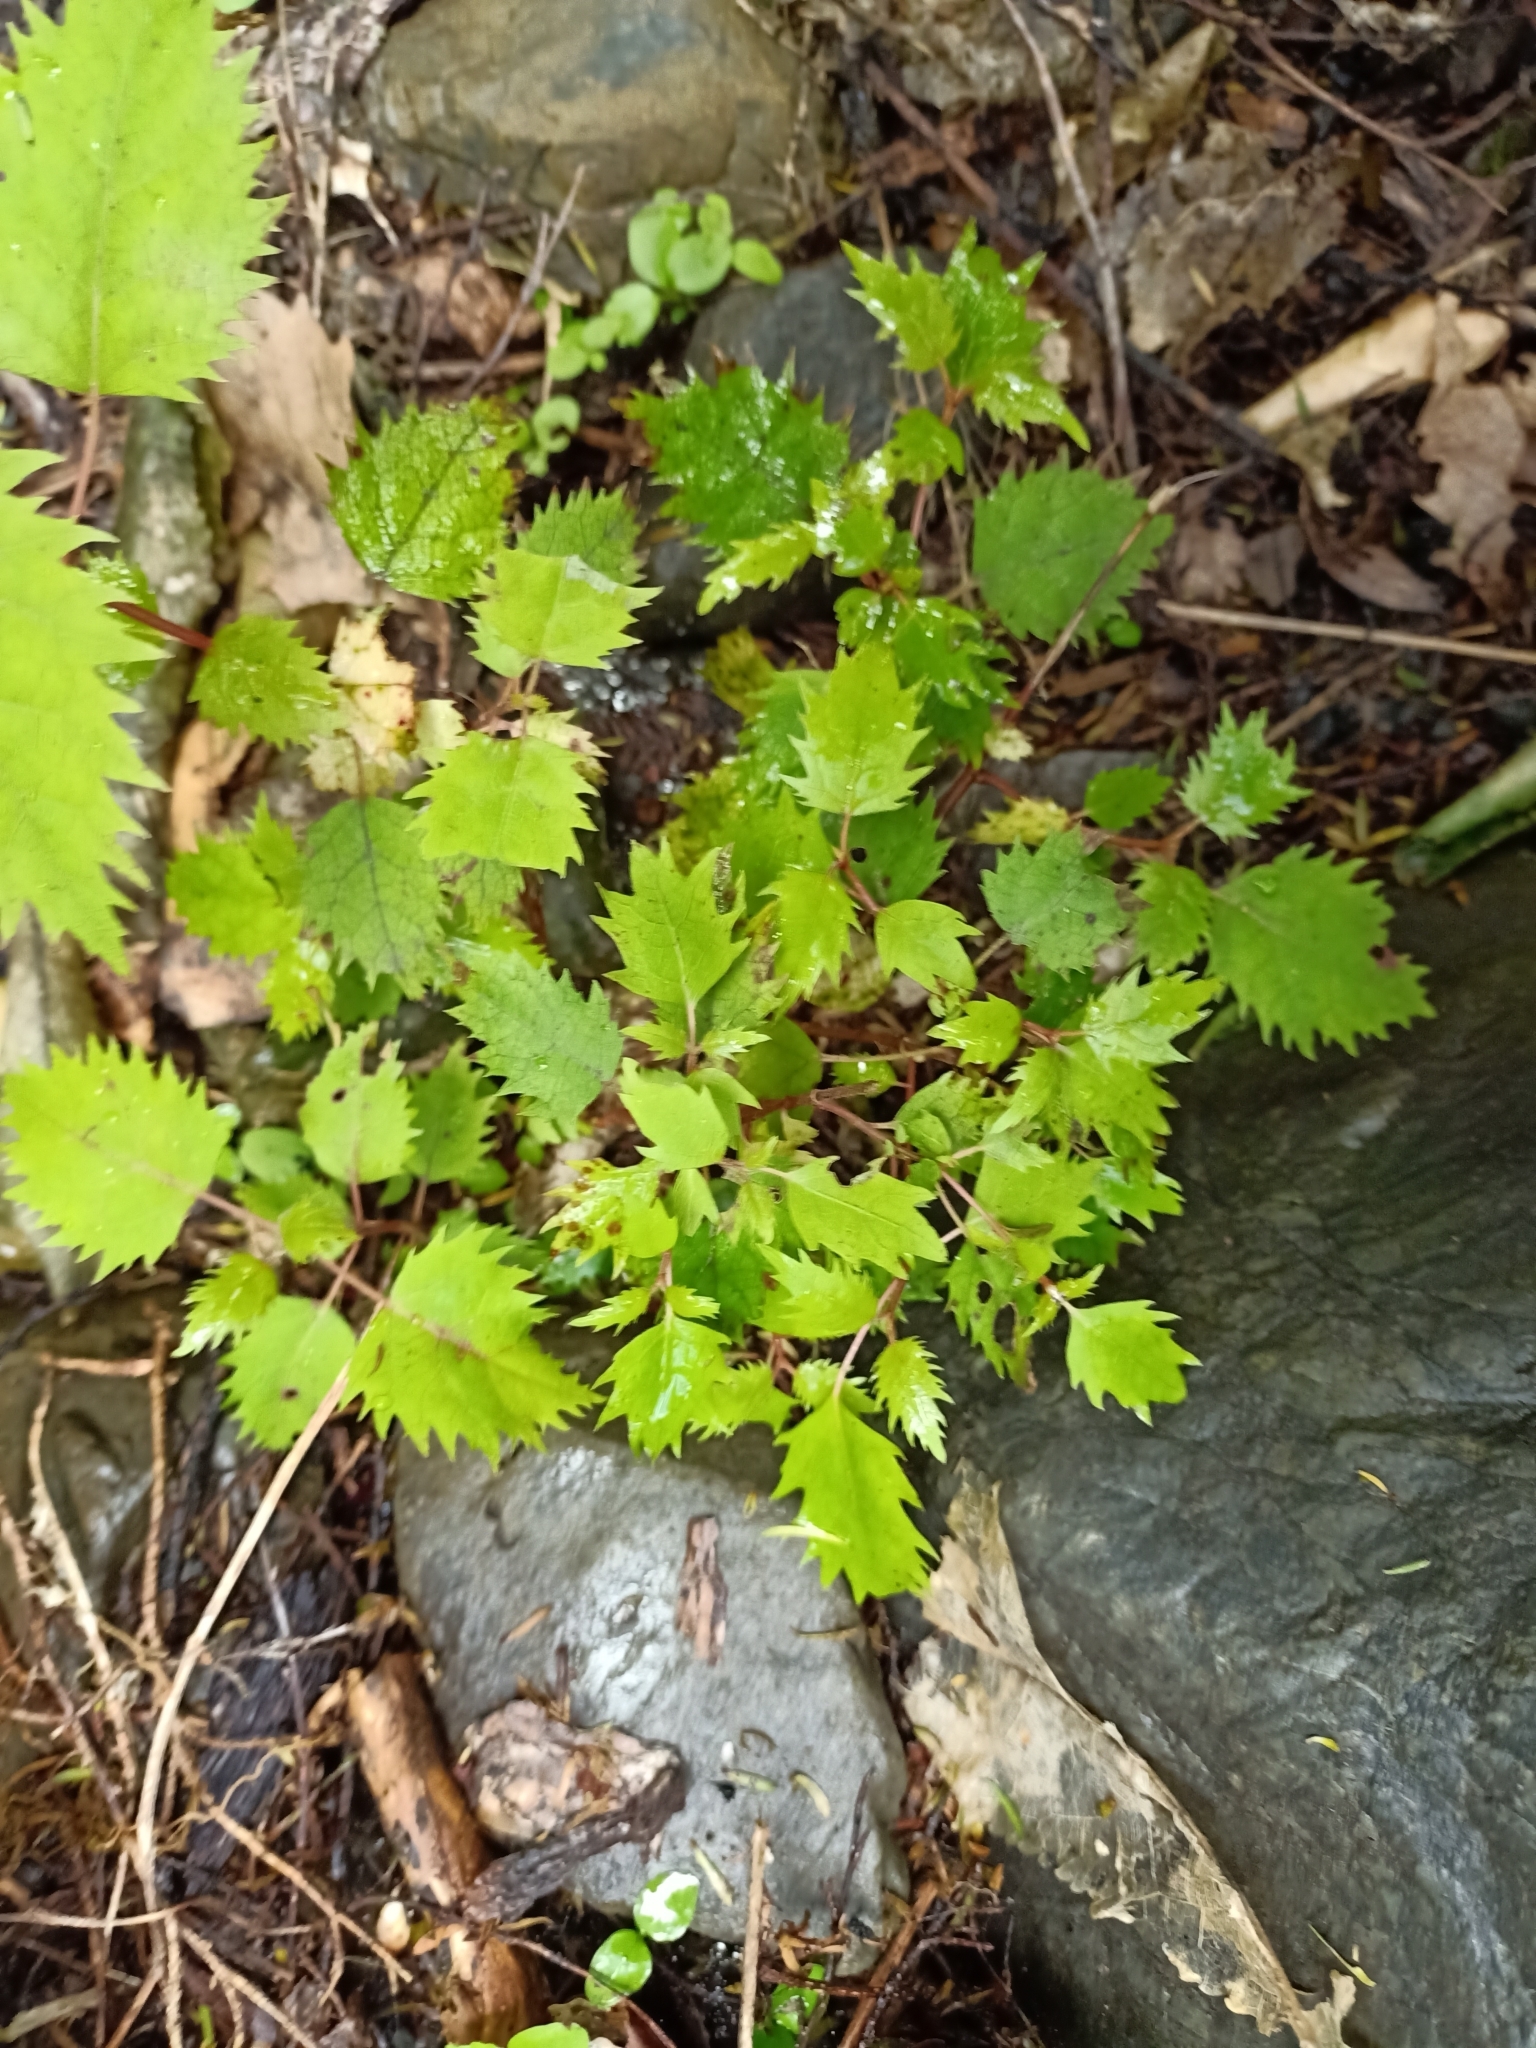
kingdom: Plantae
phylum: Tracheophyta
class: Magnoliopsida
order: Oxalidales
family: Elaeocarpaceae
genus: Aristotelia
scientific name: Aristotelia serrata
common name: New zealand wineberry
